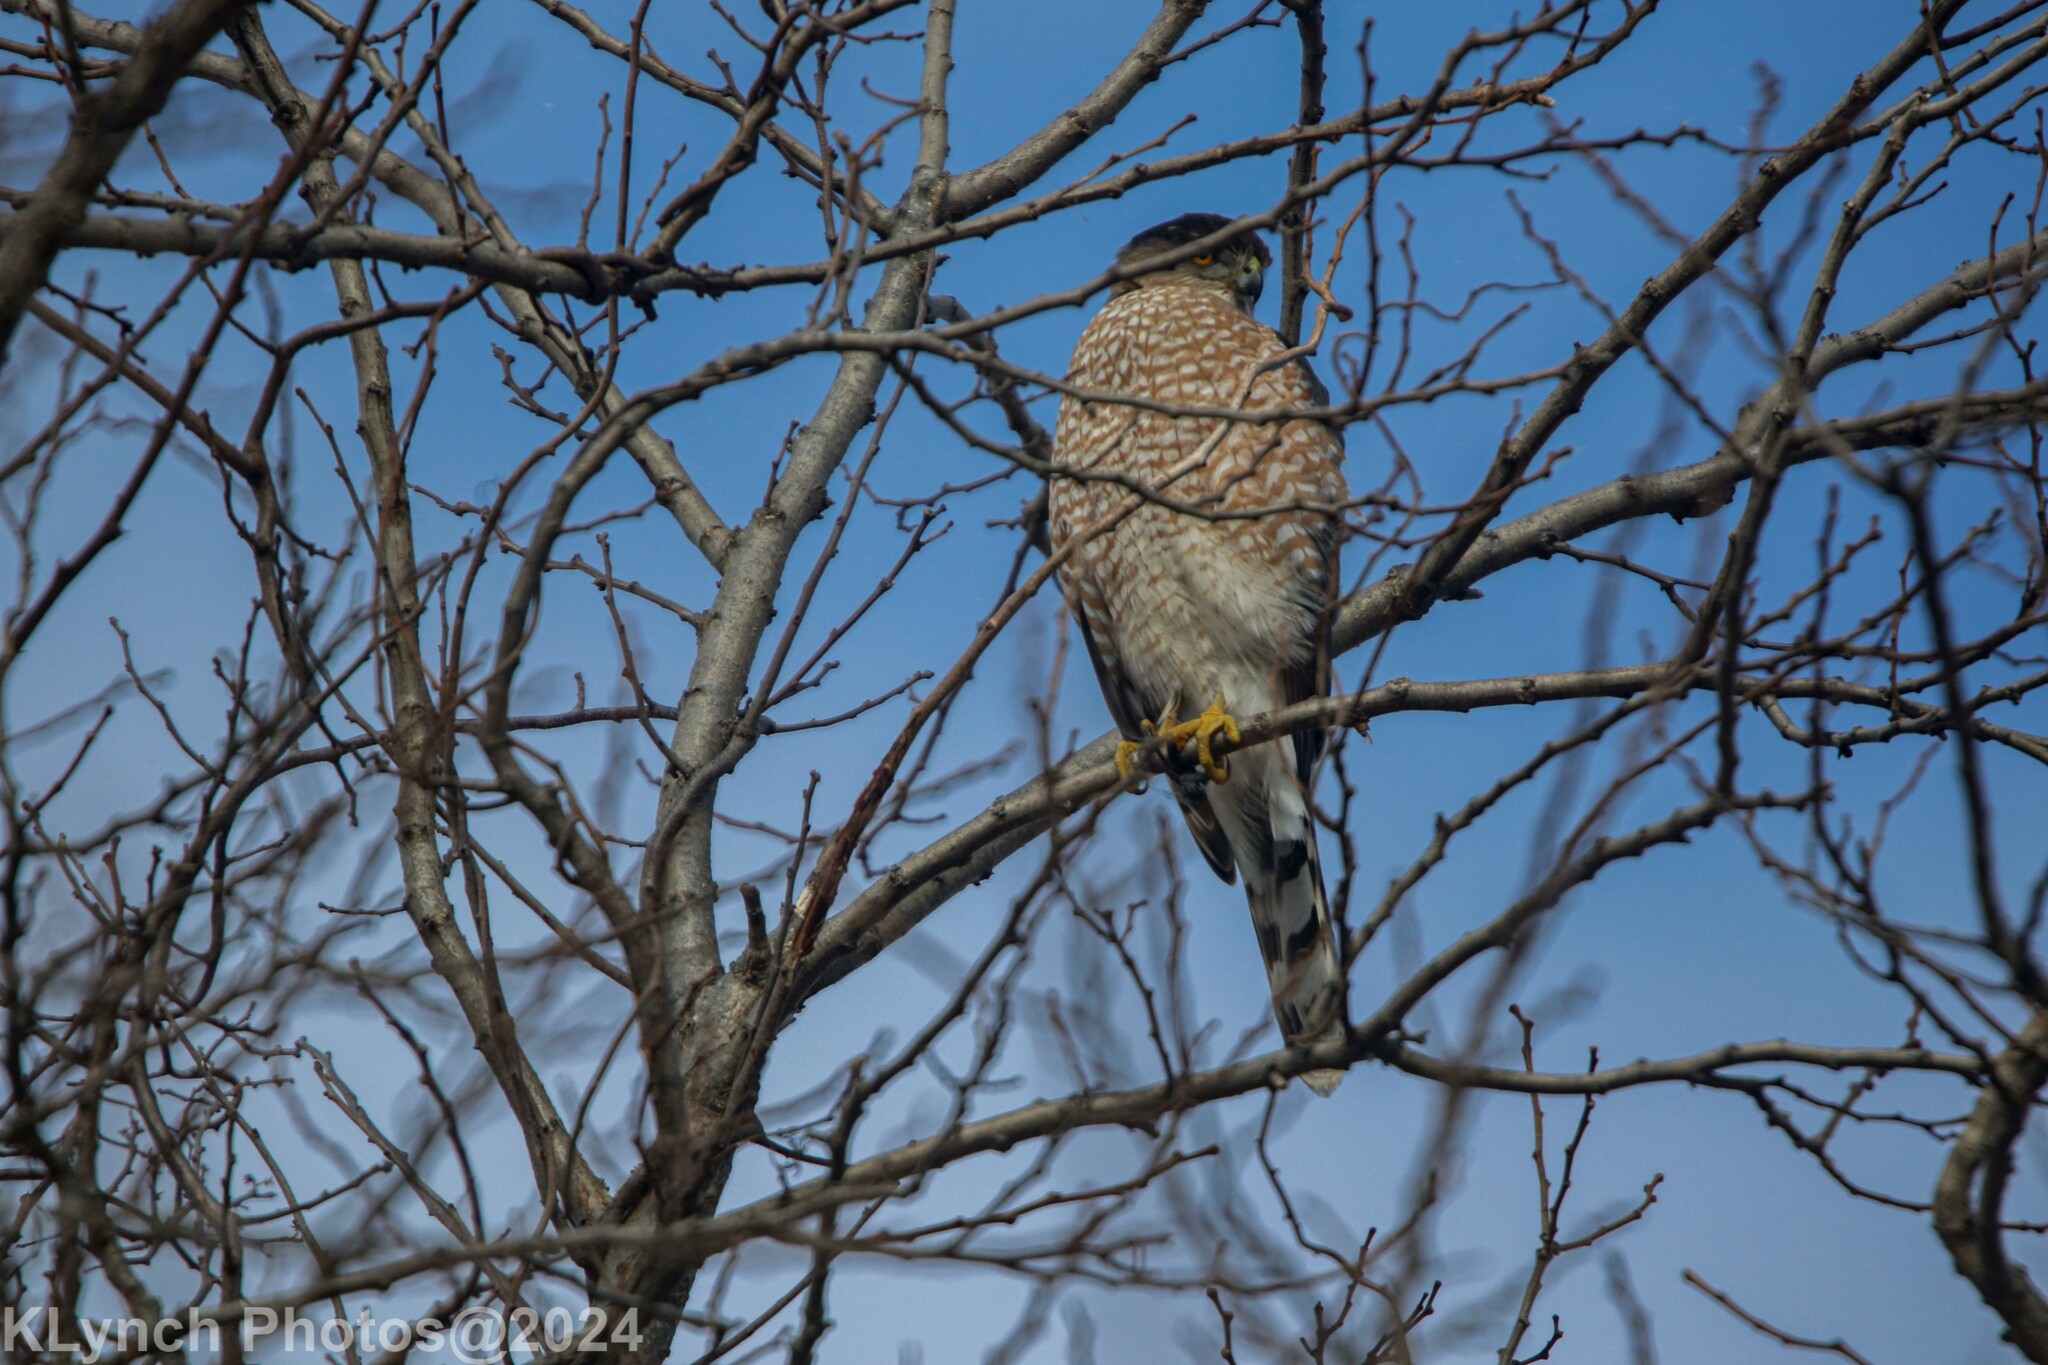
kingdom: Animalia
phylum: Chordata
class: Aves
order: Accipitriformes
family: Accipitridae
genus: Accipiter
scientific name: Accipiter cooperii
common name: Cooper's hawk
